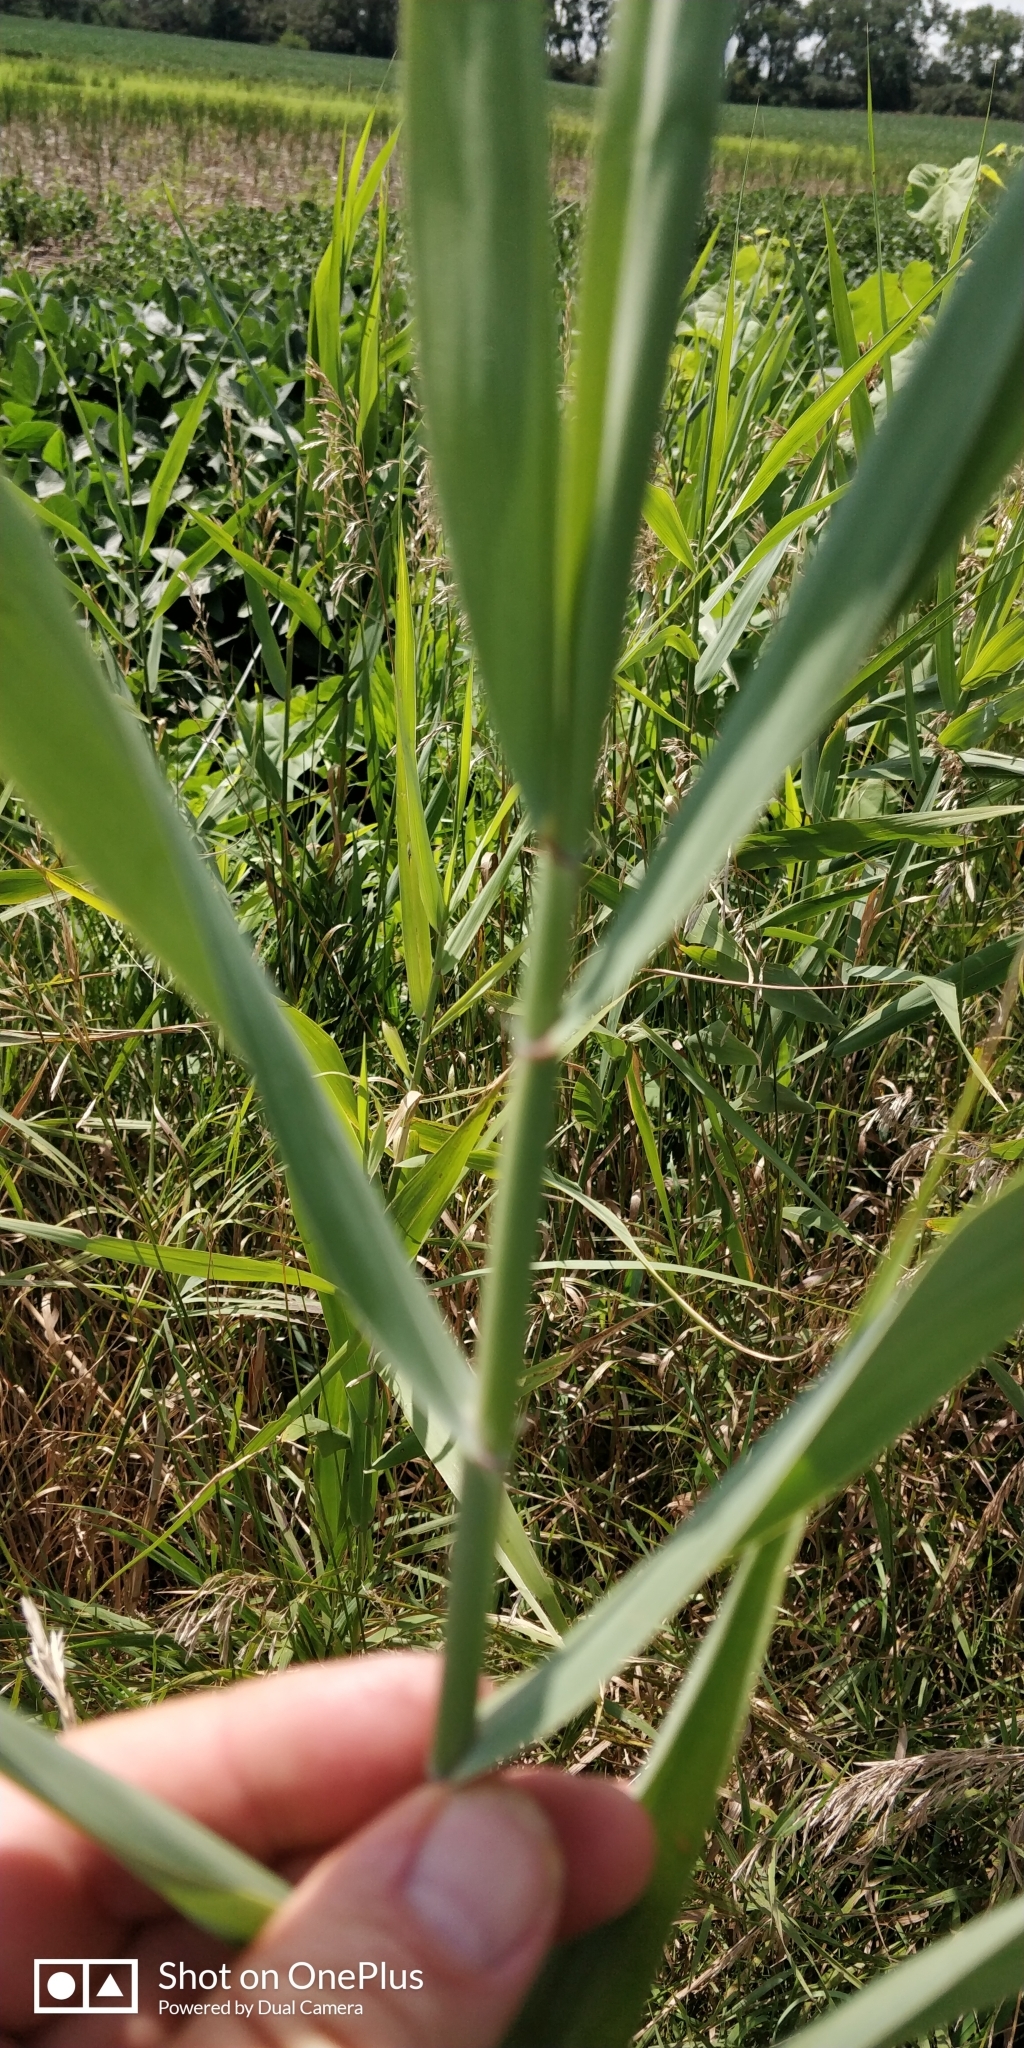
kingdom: Plantae
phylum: Tracheophyta
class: Liliopsida
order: Poales
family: Poaceae
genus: Phragmites
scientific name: Phragmites australis
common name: Common reed
